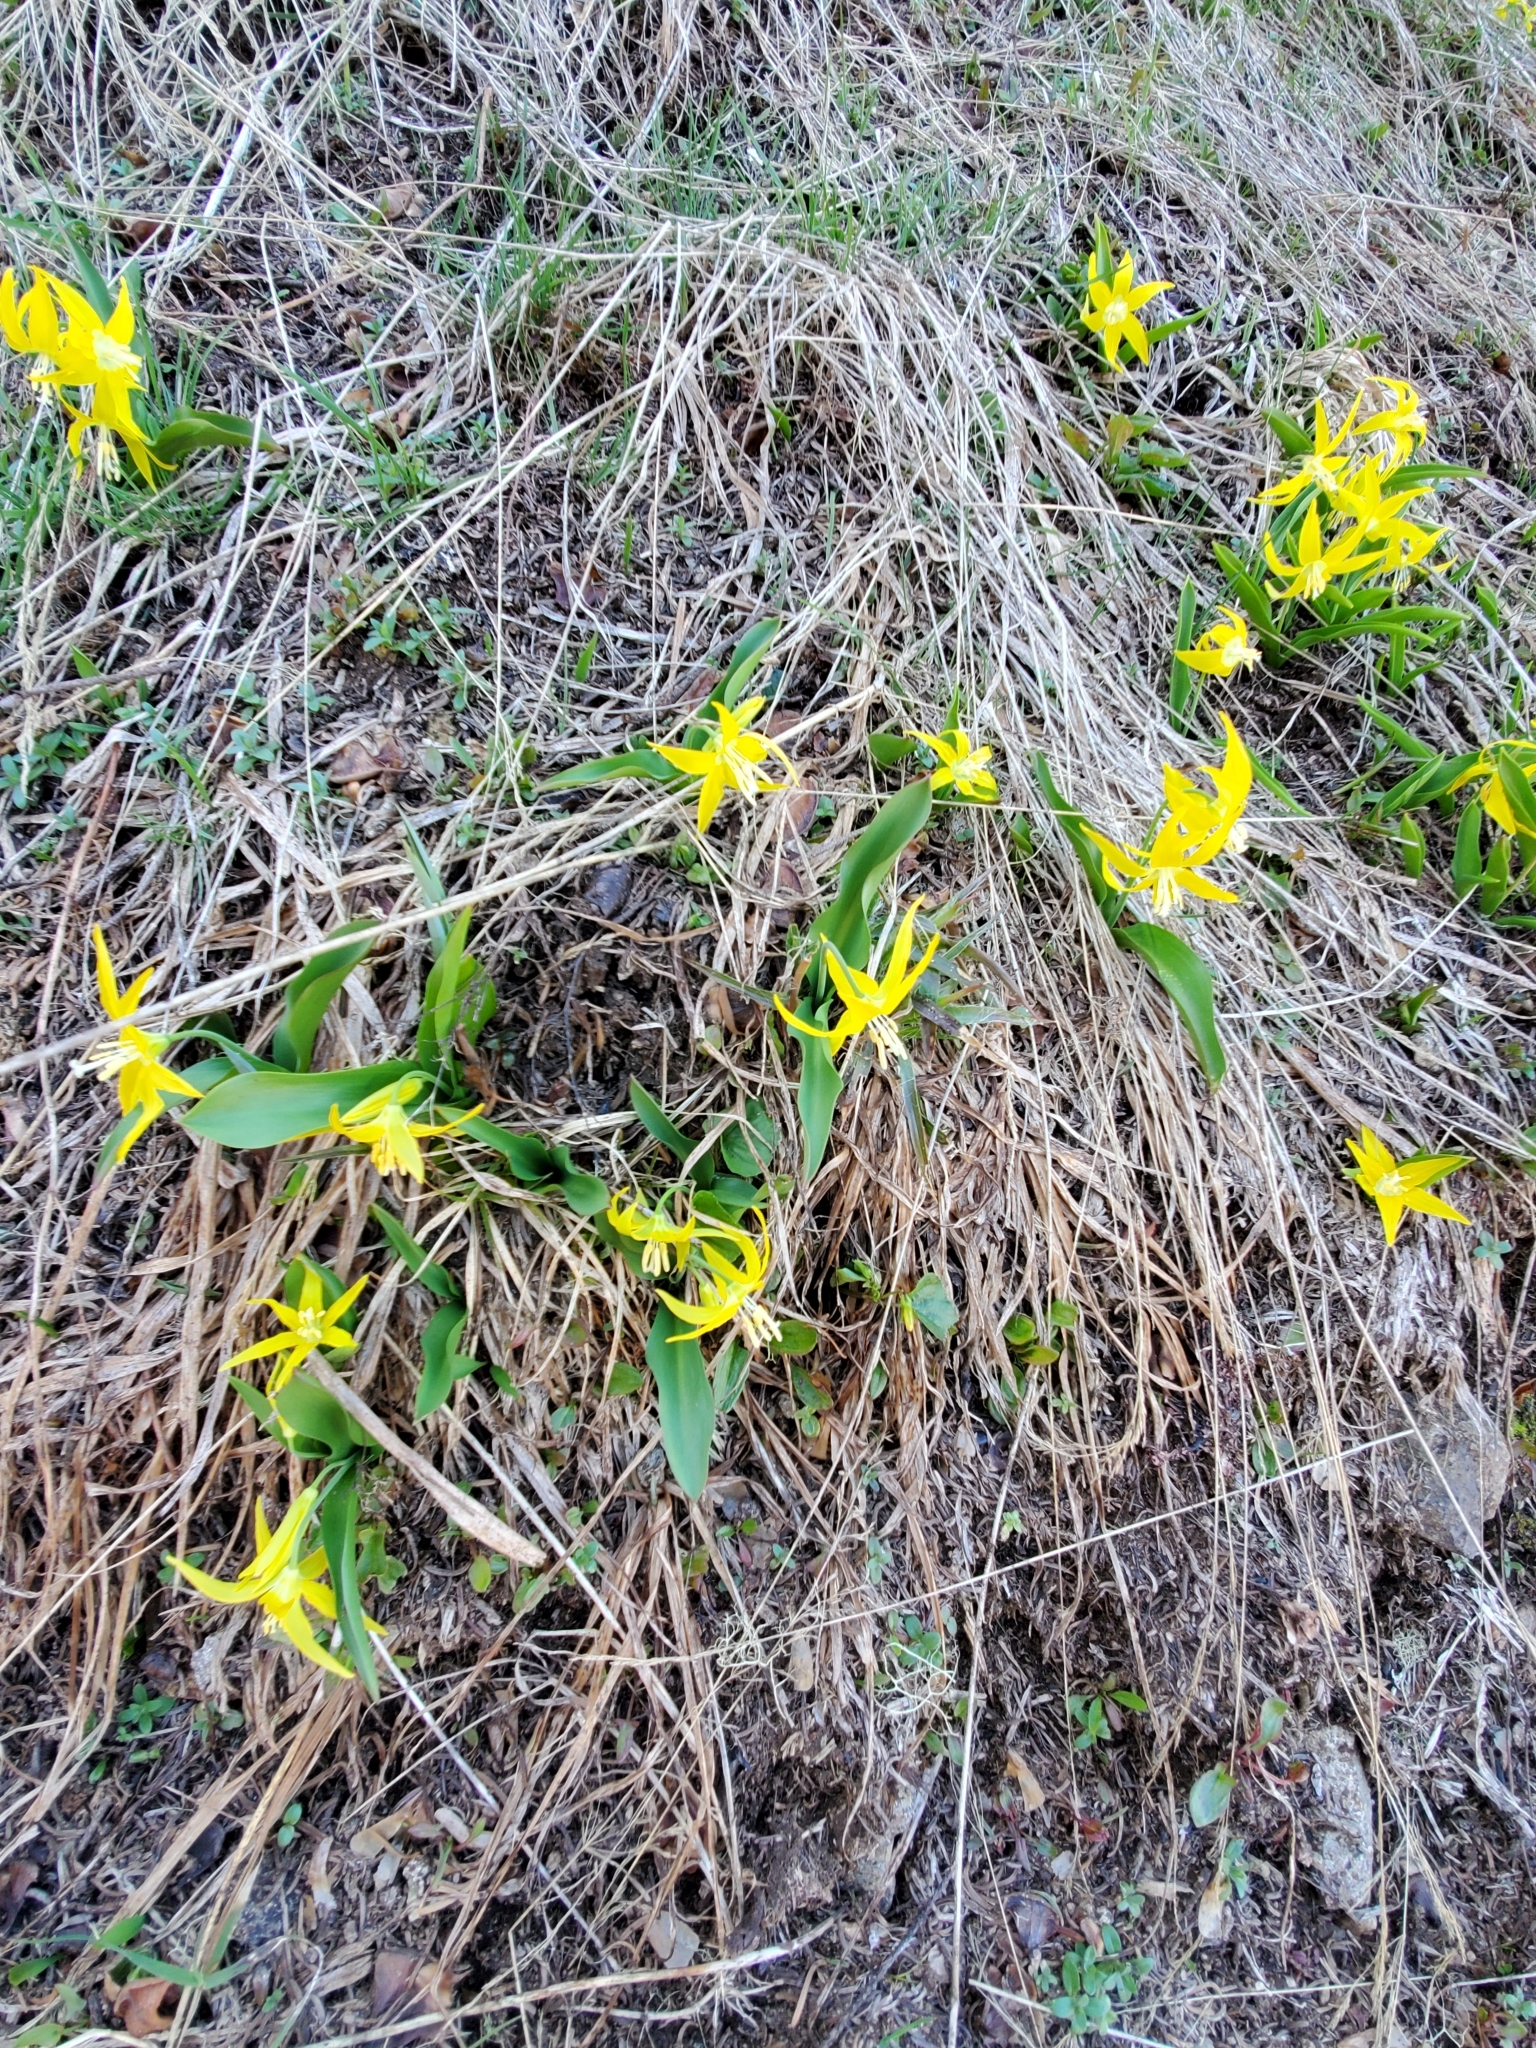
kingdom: Plantae
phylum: Tracheophyta
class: Liliopsida
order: Liliales
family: Liliaceae
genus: Erythronium
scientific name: Erythronium grandiflorum
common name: Avalanche-lily
